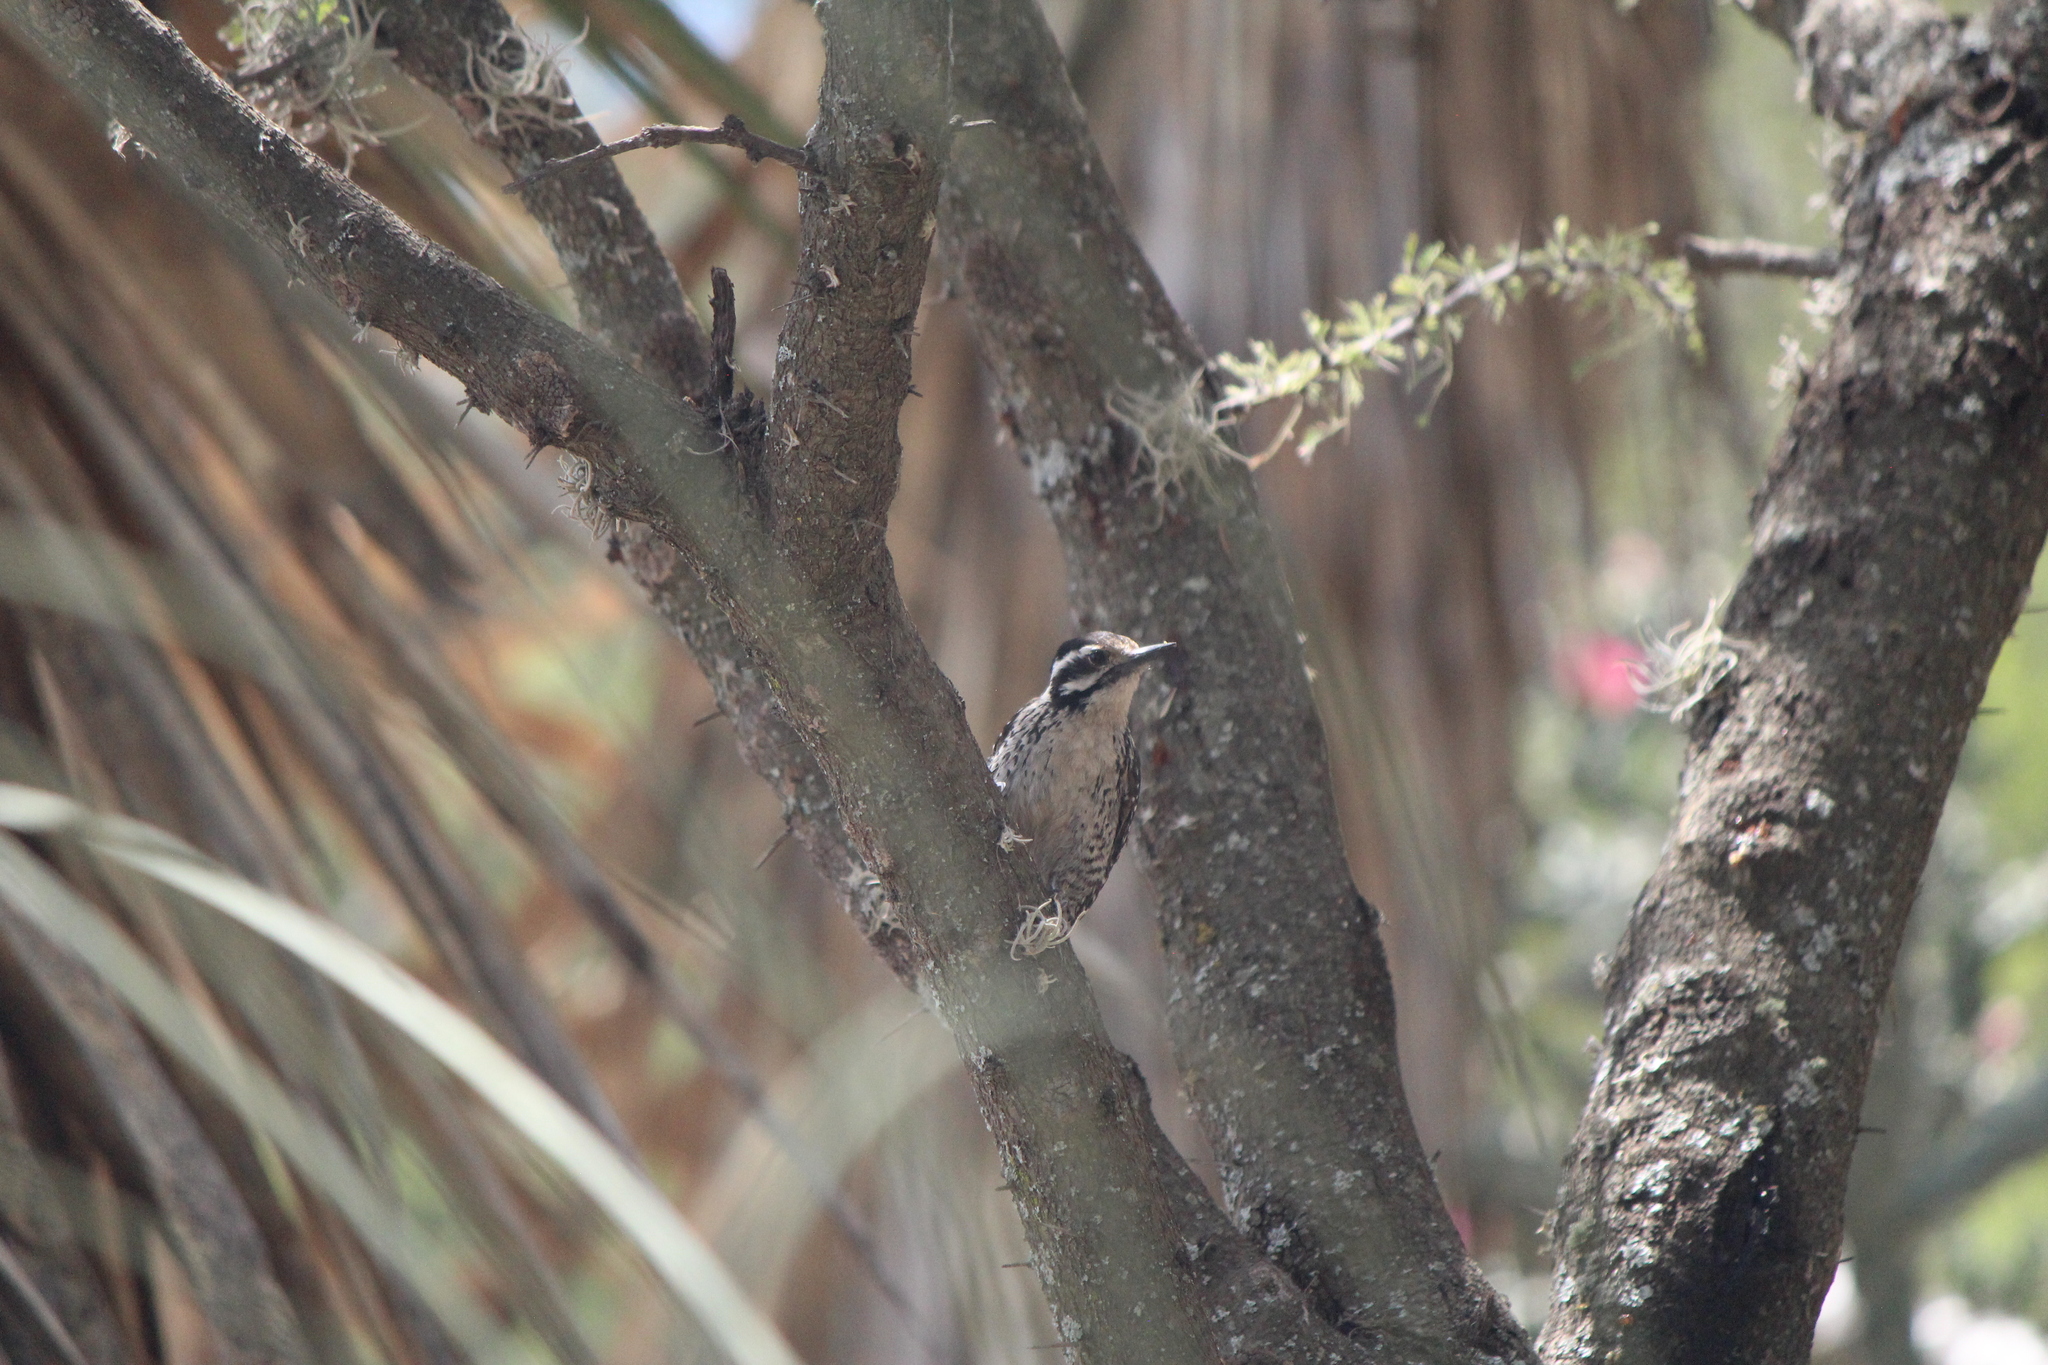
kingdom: Animalia
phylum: Chordata
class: Aves
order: Piciformes
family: Picidae
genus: Dryobates
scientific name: Dryobates scalaris
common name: Ladder-backed woodpecker
